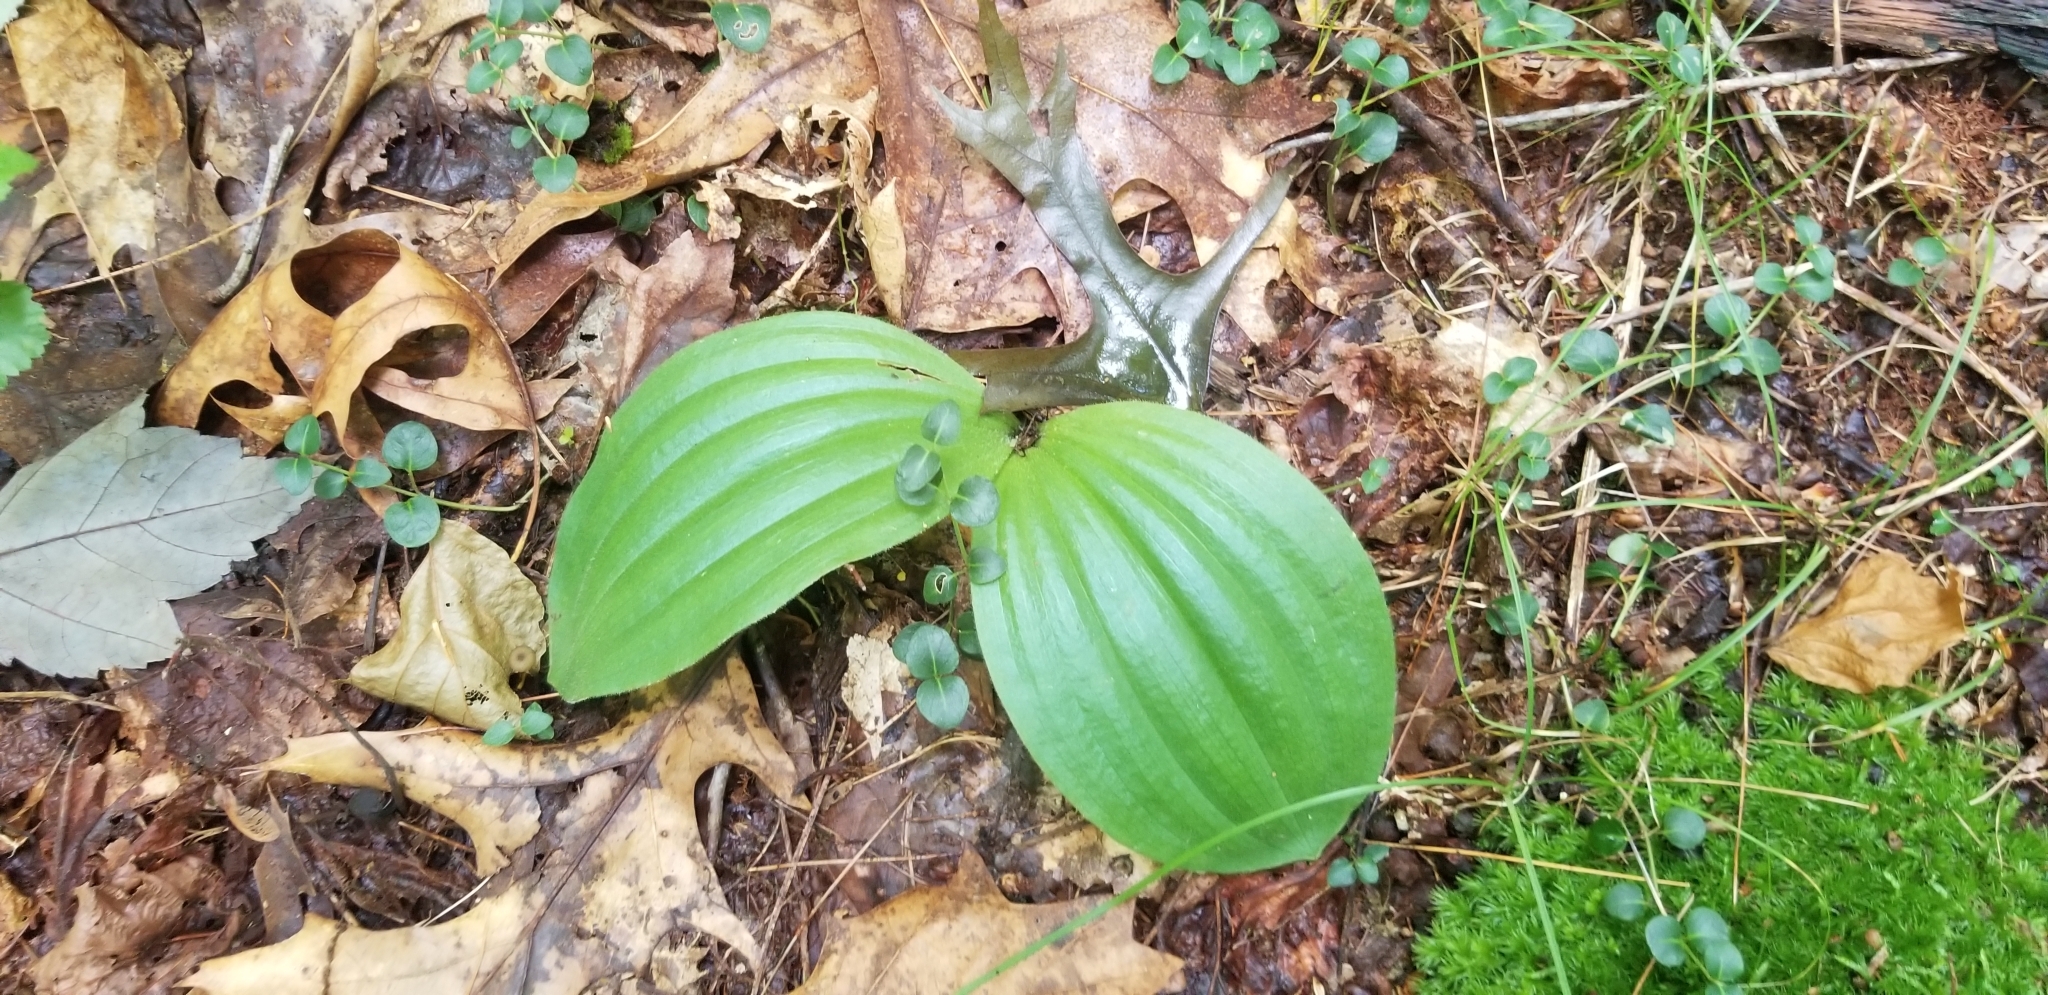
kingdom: Plantae
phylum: Tracheophyta
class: Liliopsida
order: Asparagales
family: Orchidaceae
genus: Cypripedium
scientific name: Cypripedium acaule
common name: Pink lady's-slipper
